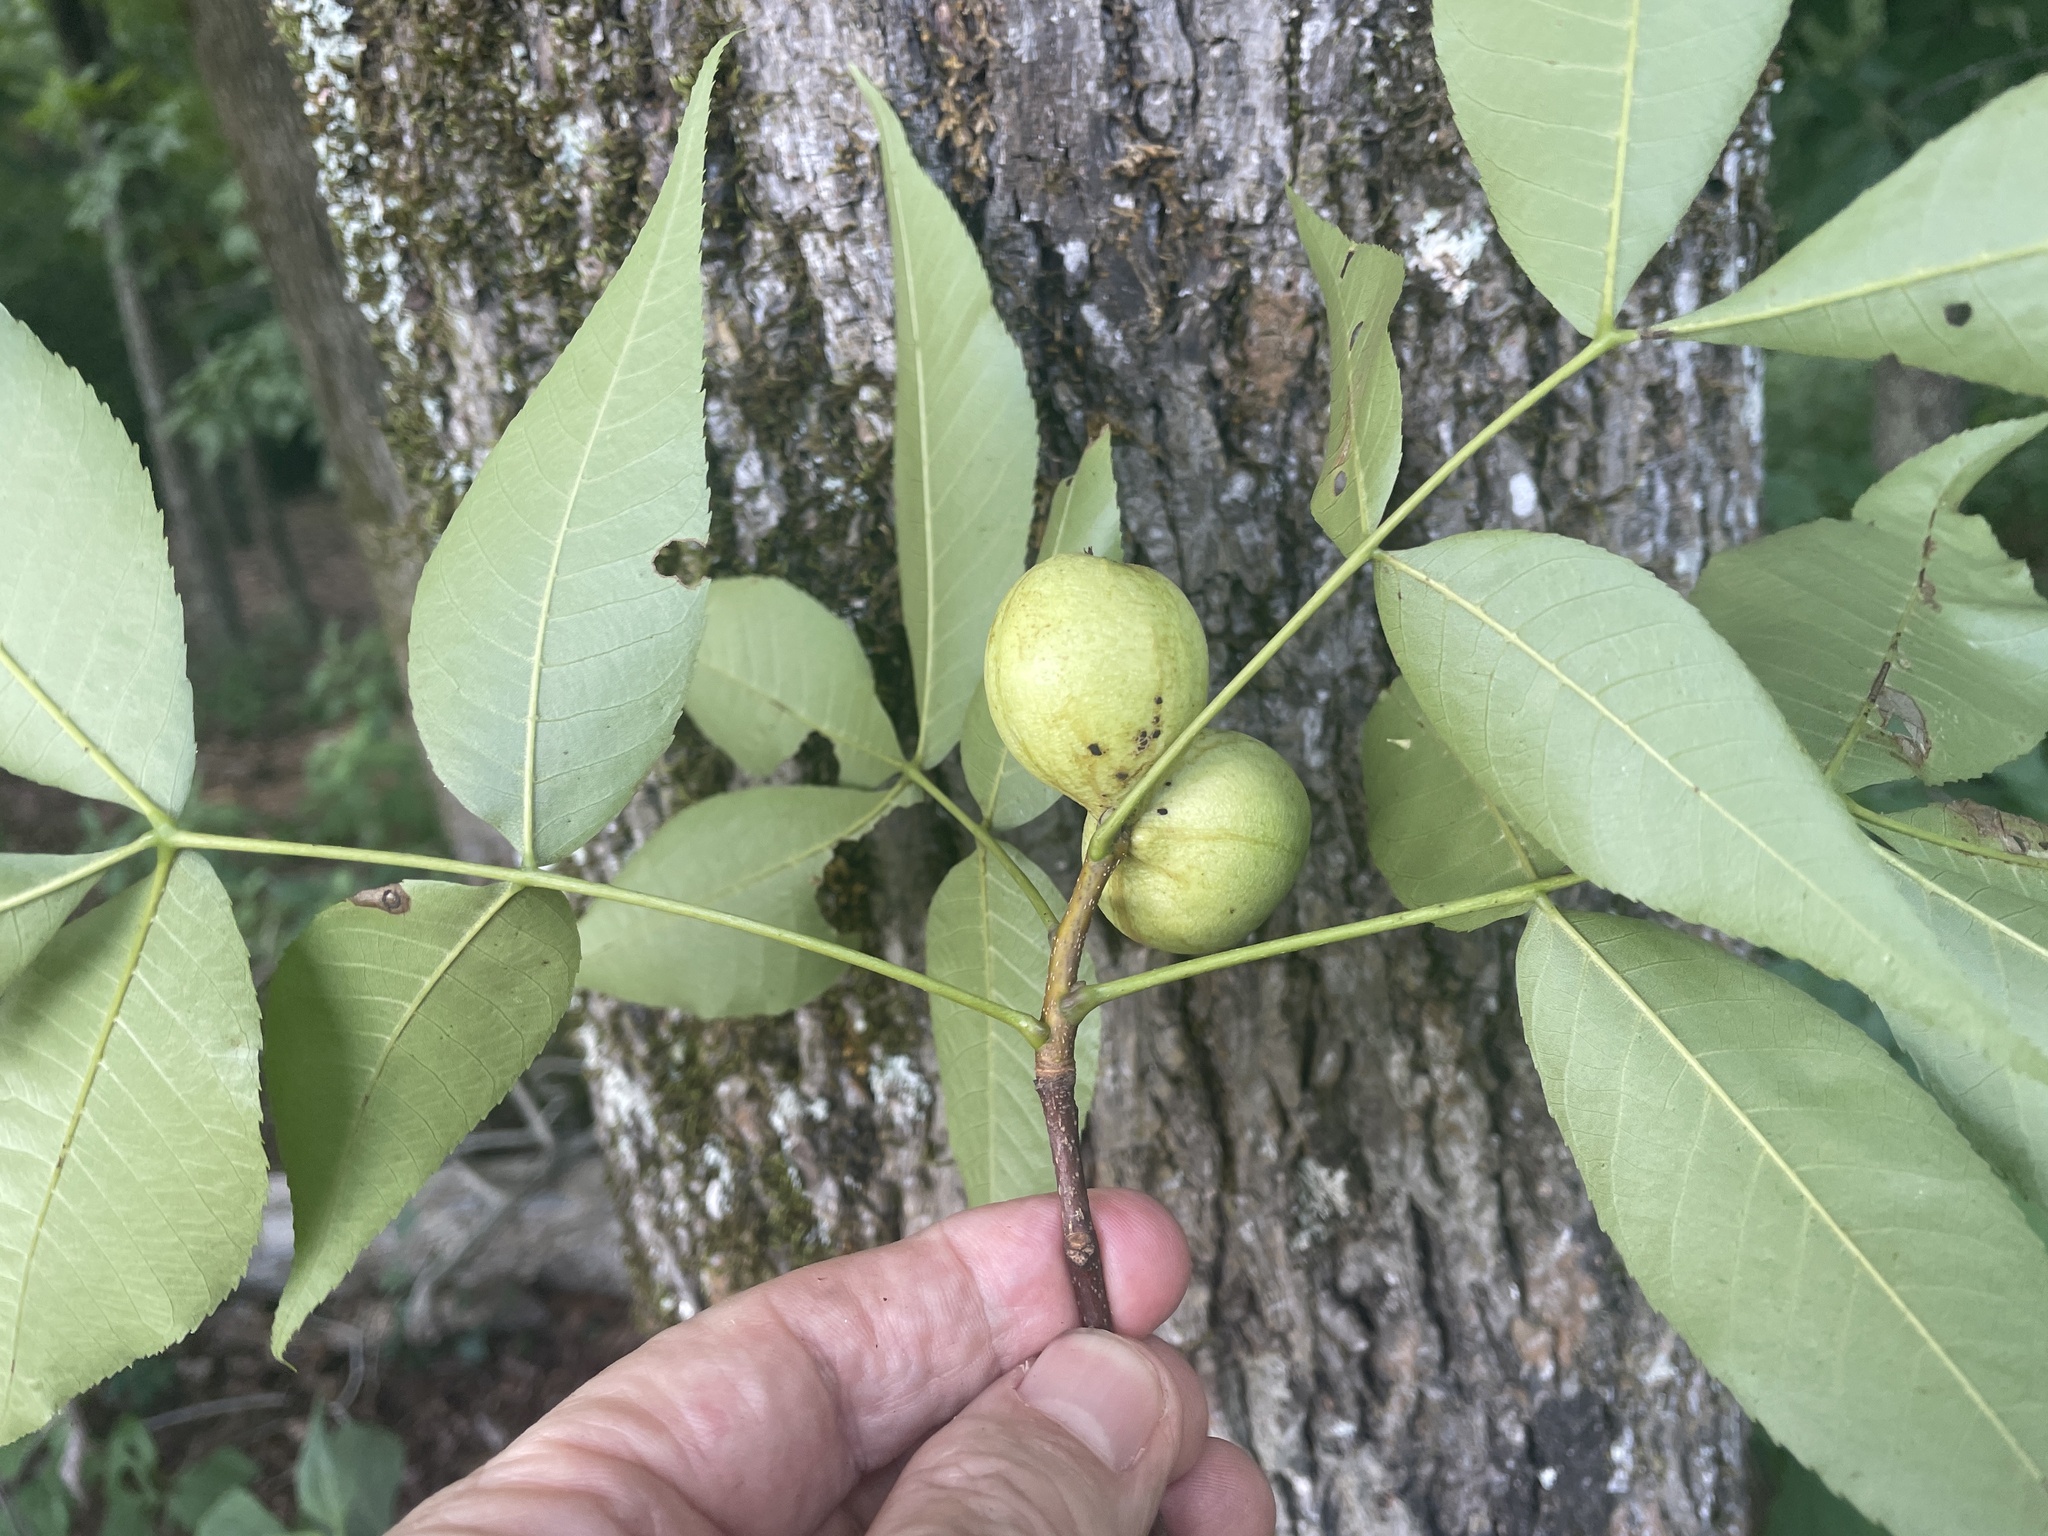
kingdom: Animalia
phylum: Arthropoda
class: Insecta
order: Hemiptera
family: Phylloxeridae
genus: Phylloxera
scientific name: Phylloxera pilosula
